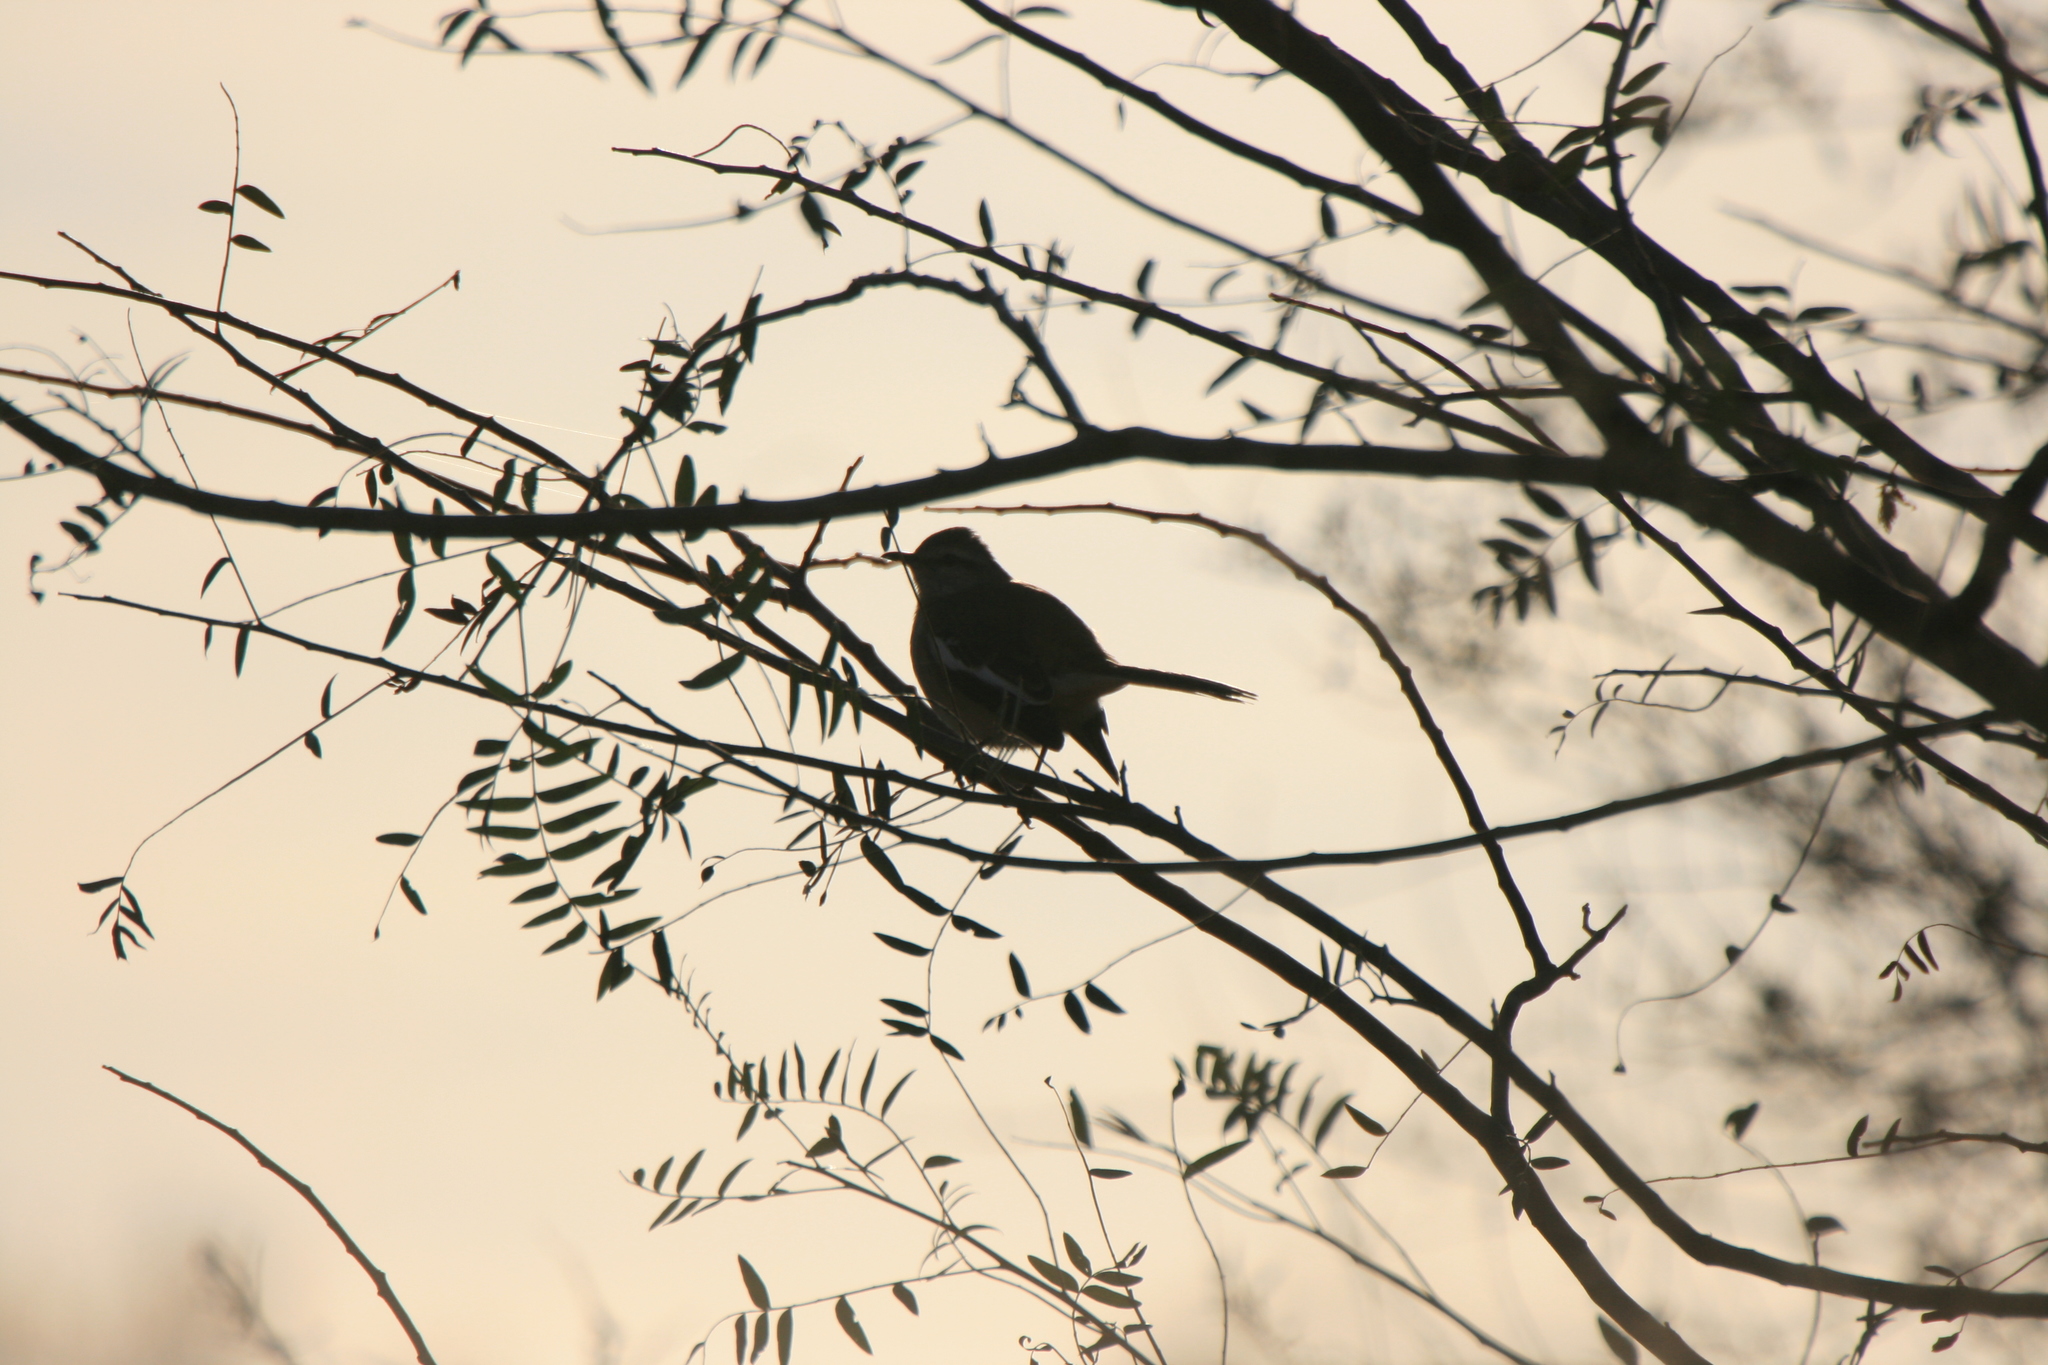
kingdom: Animalia
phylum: Chordata
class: Aves
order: Passeriformes
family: Mimidae
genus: Mimus
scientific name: Mimus triurus
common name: White-banded mockingbird
